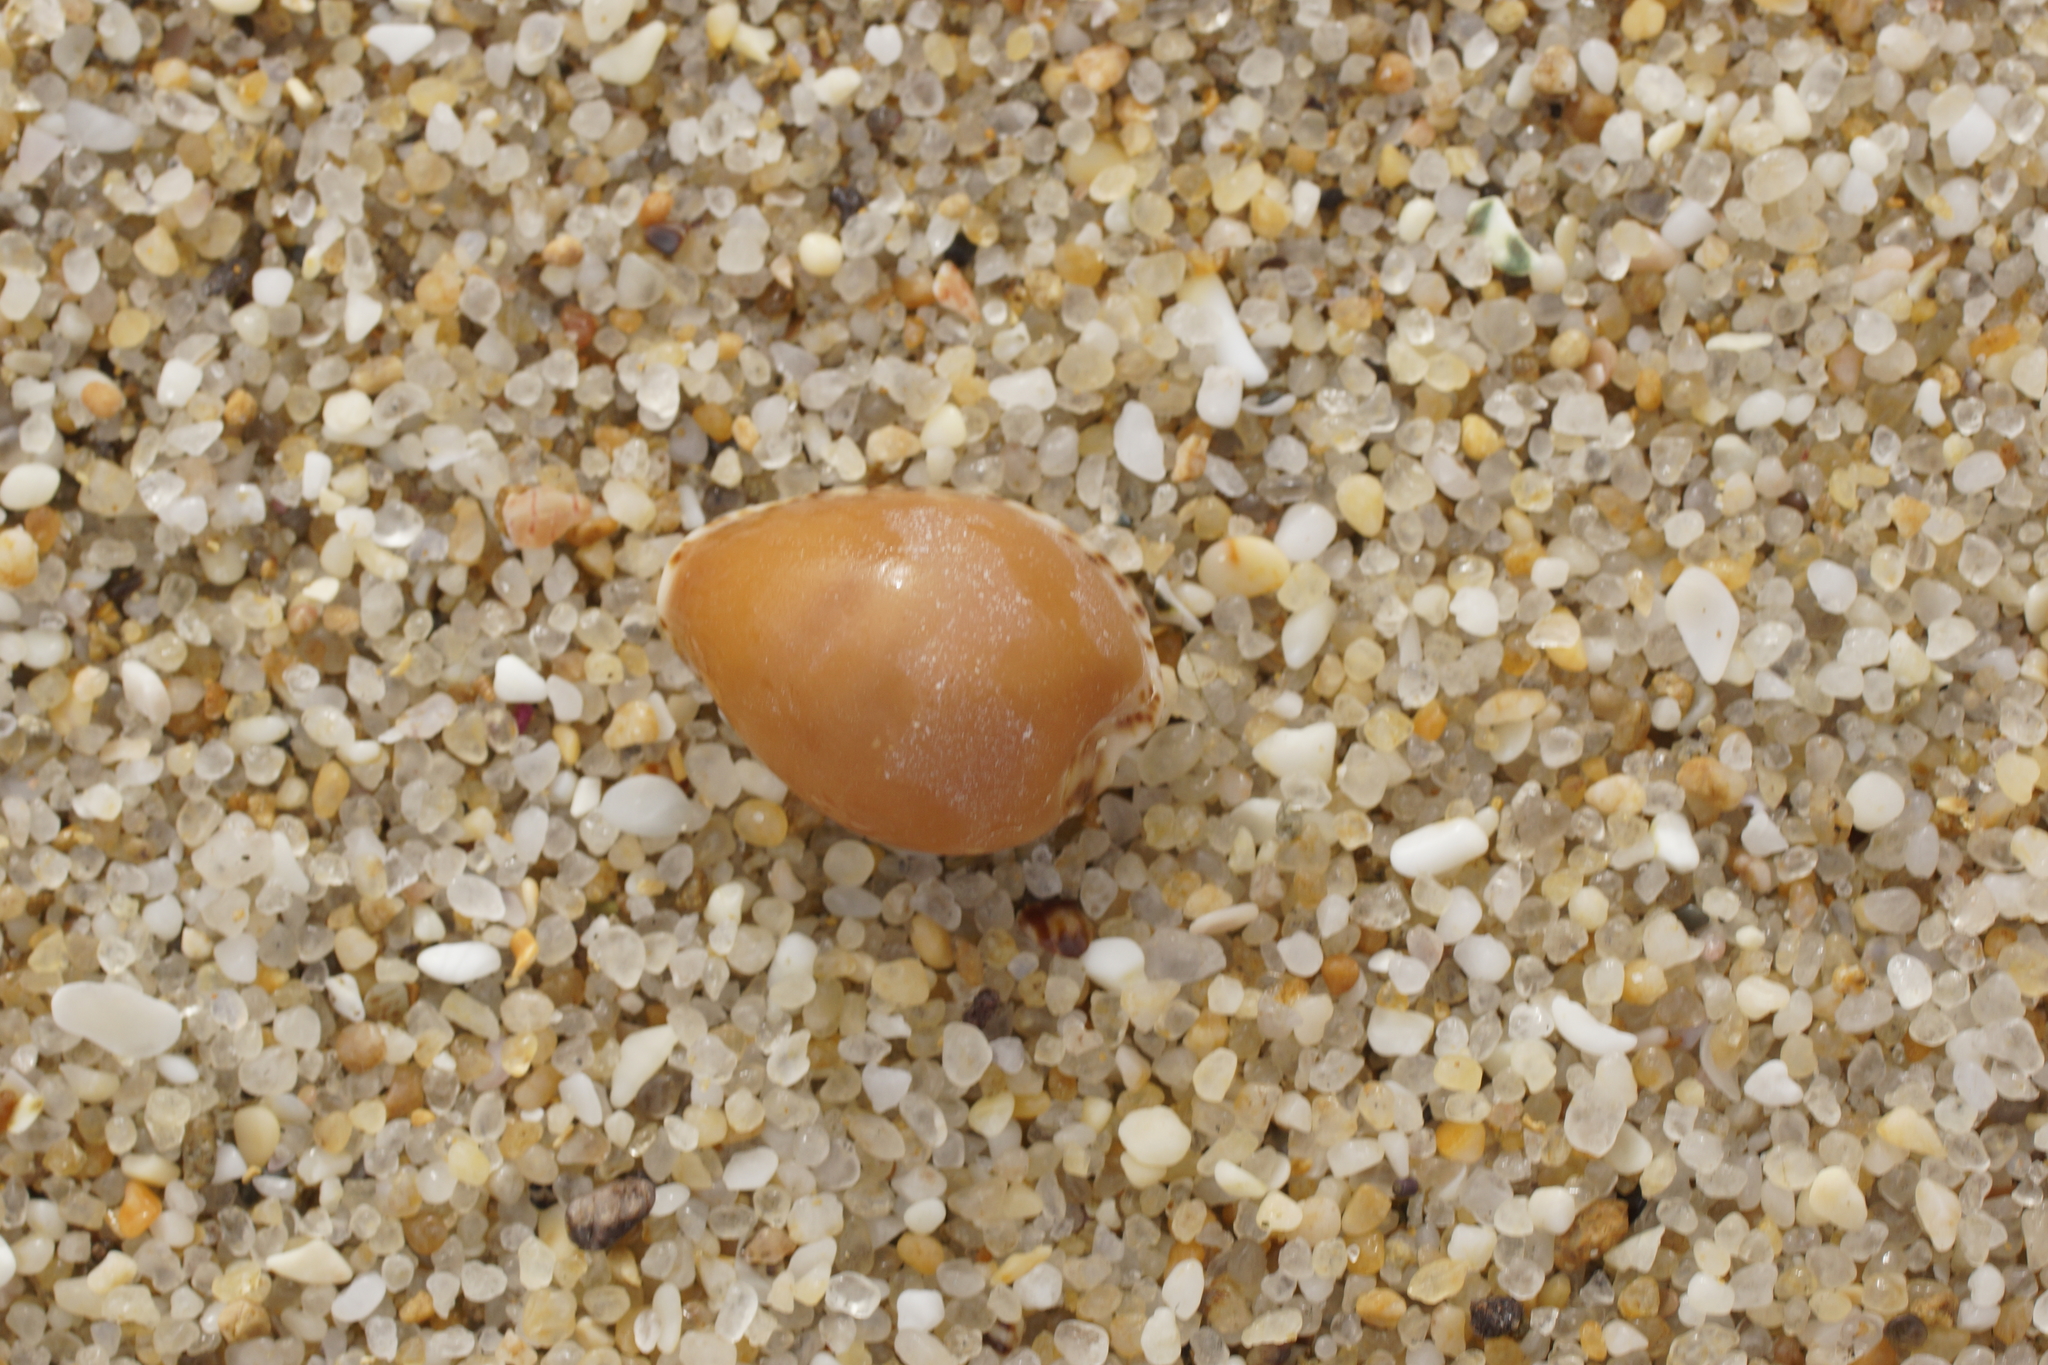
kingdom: Animalia
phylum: Mollusca
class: Gastropoda
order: Littorinimorpha
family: Cypraeidae
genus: Notocypraea
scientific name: Notocypraea angustata
